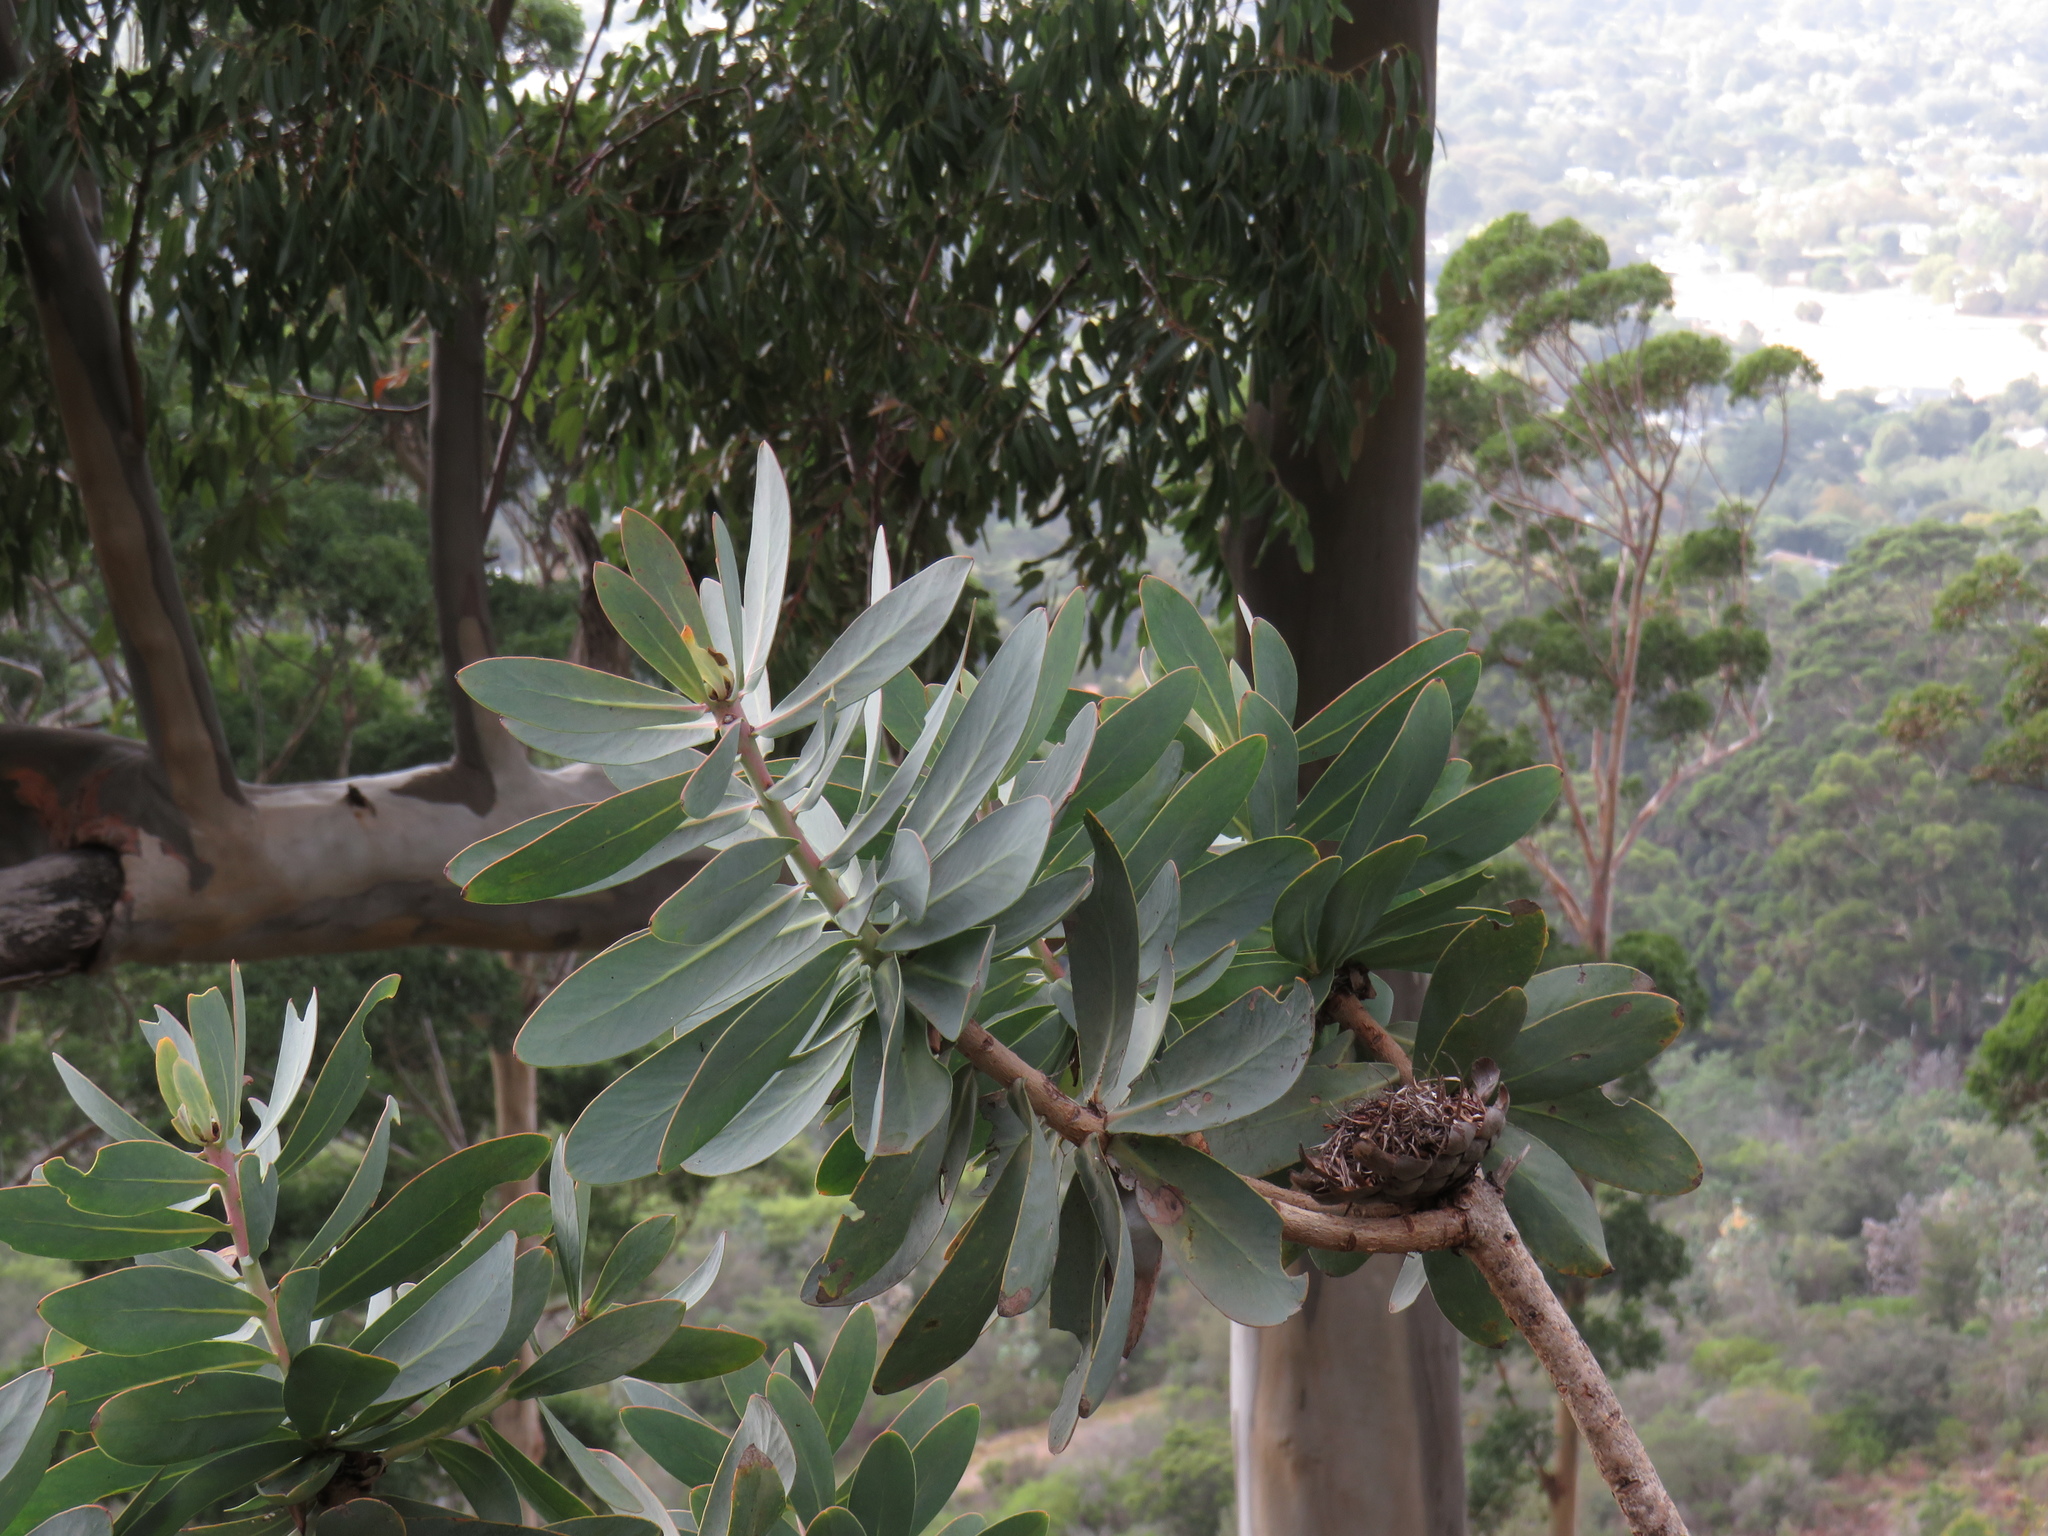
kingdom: Plantae
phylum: Tracheophyta
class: Magnoliopsida
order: Proteales
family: Proteaceae
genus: Protea
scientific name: Protea nitida
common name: Tree protea
